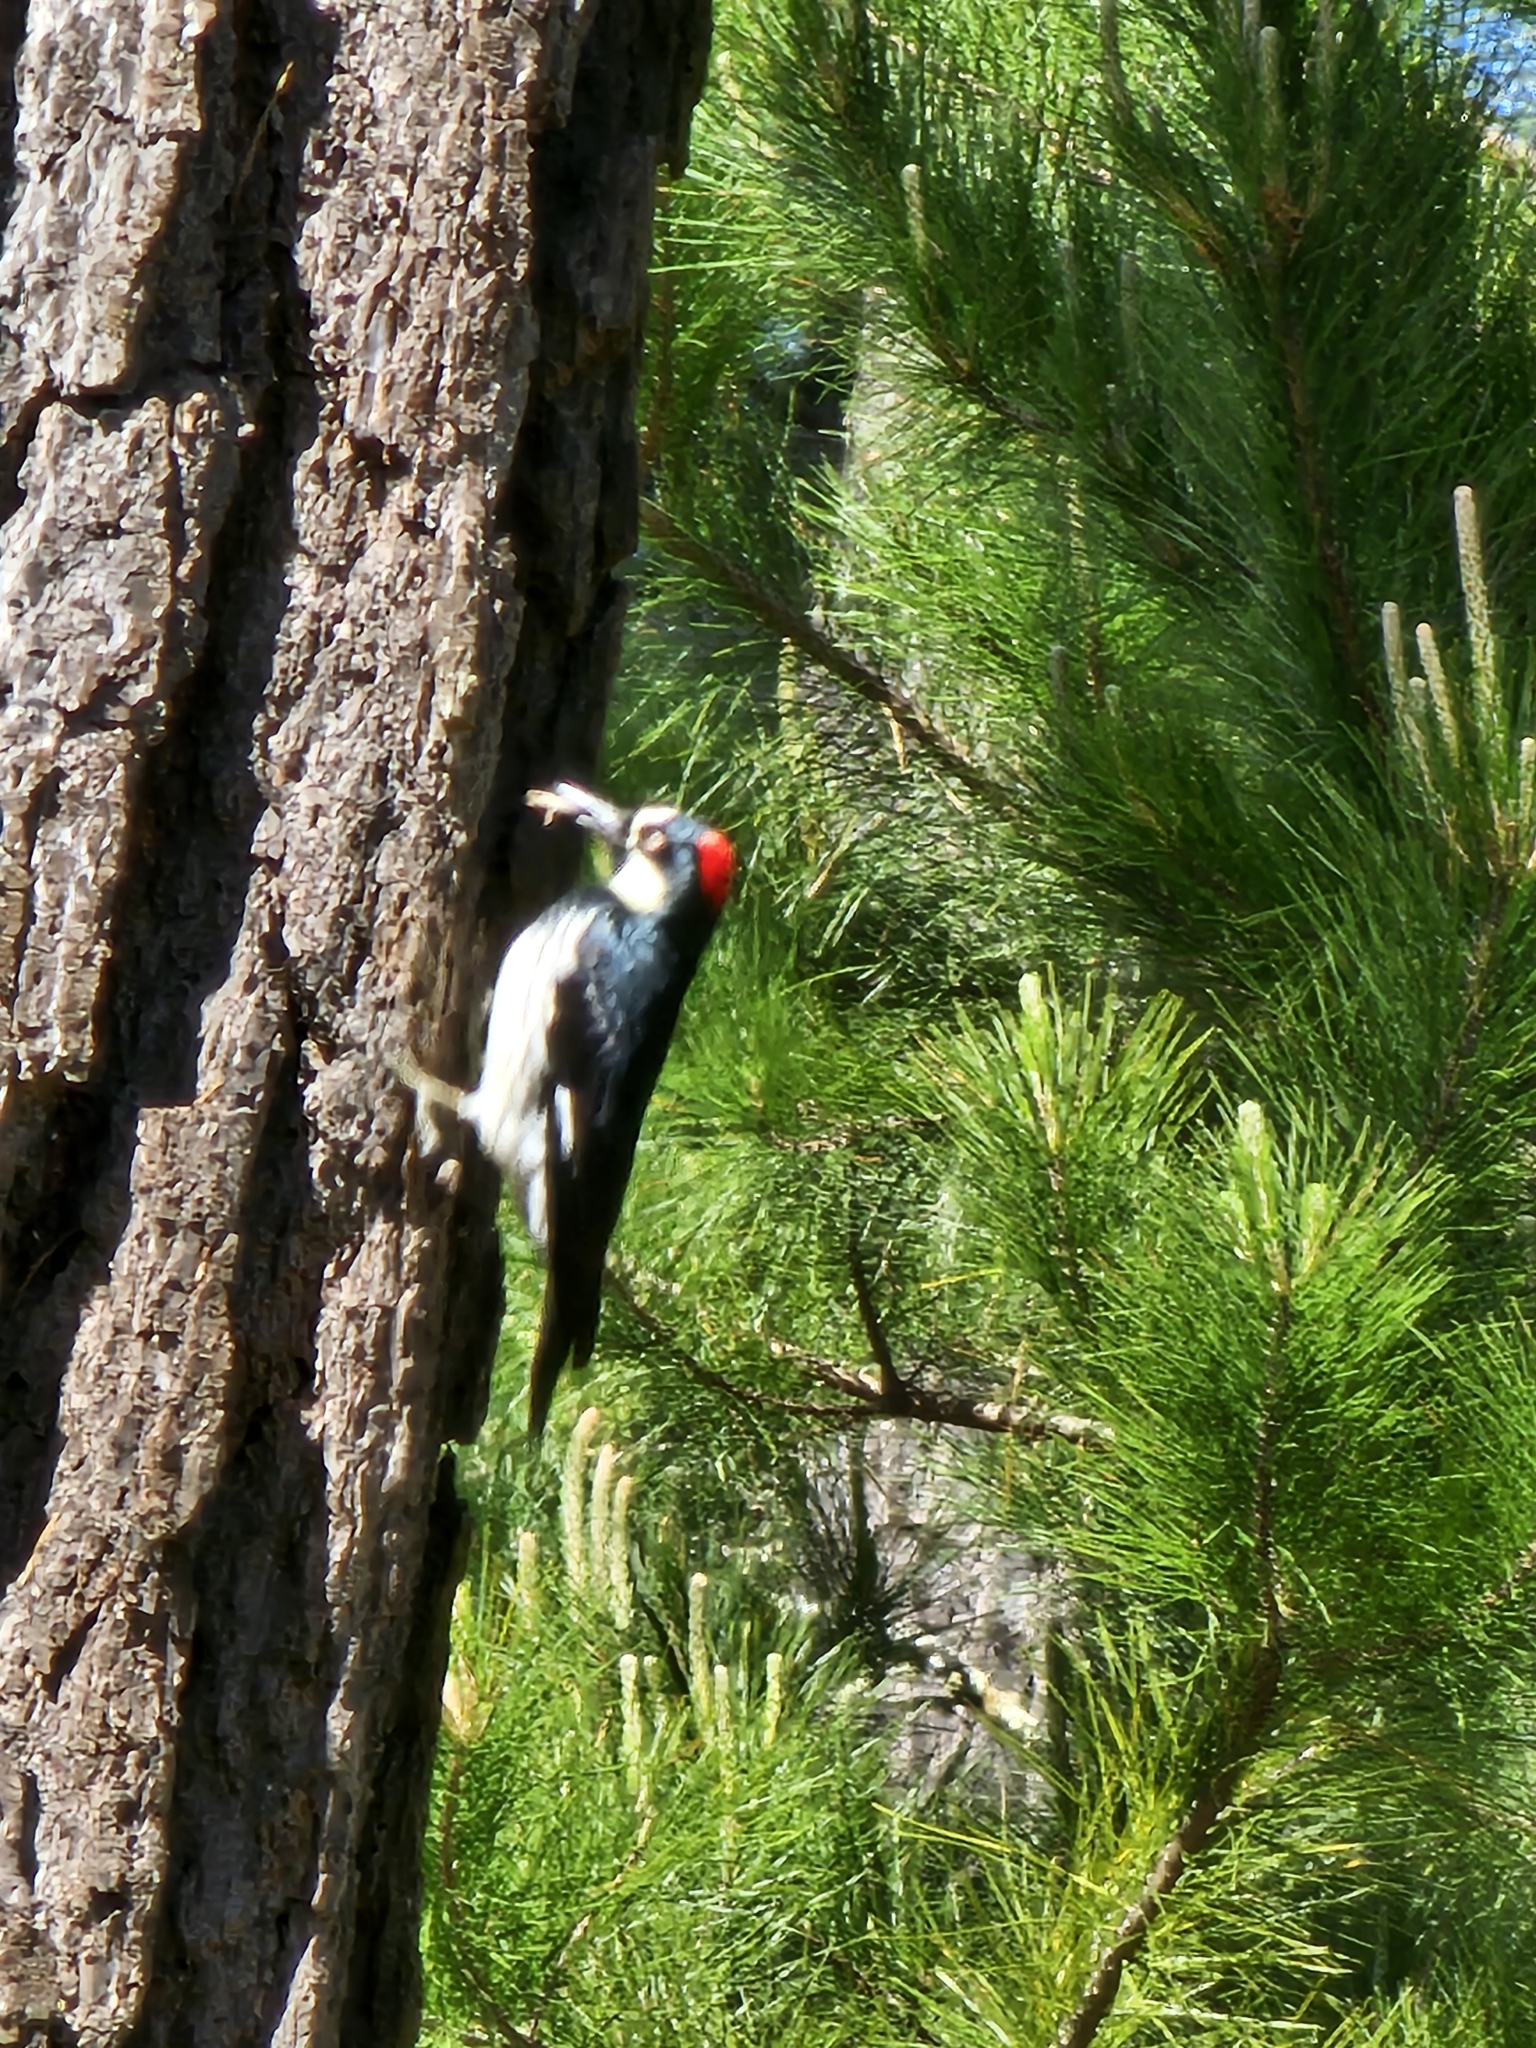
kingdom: Animalia
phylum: Chordata
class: Aves
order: Piciformes
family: Picidae
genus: Melanerpes
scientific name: Melanerpes formicivorus
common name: Acorn woodpecker
